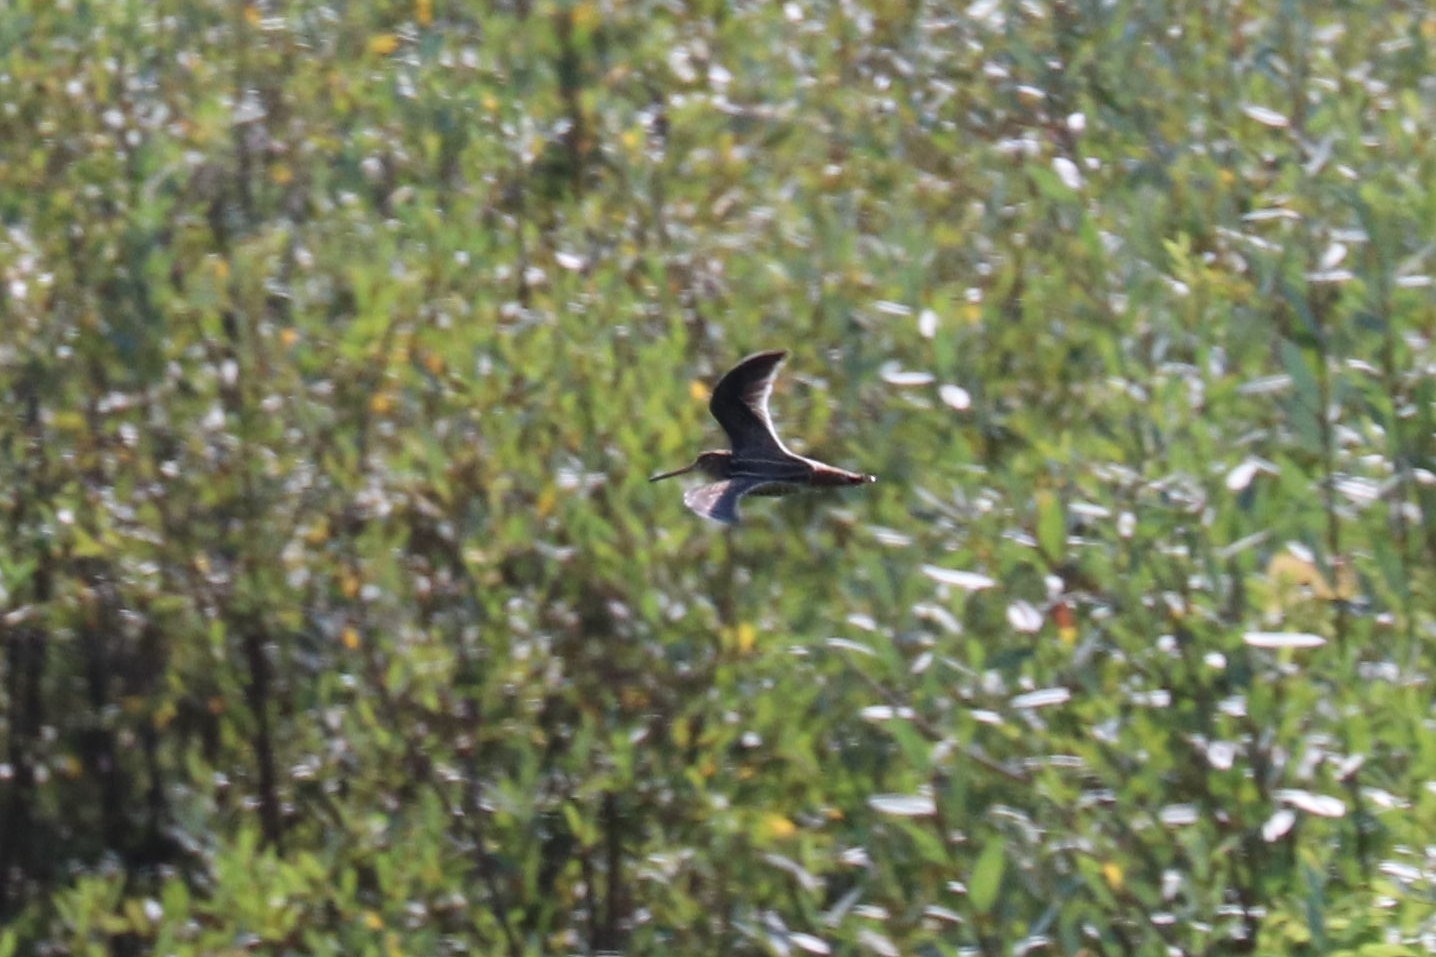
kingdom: Animalia
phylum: Chordata
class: Aves
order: Charadriiformes
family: Scolopacidae
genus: Gallinago
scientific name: Gallinago gallinago
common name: Common snipe
